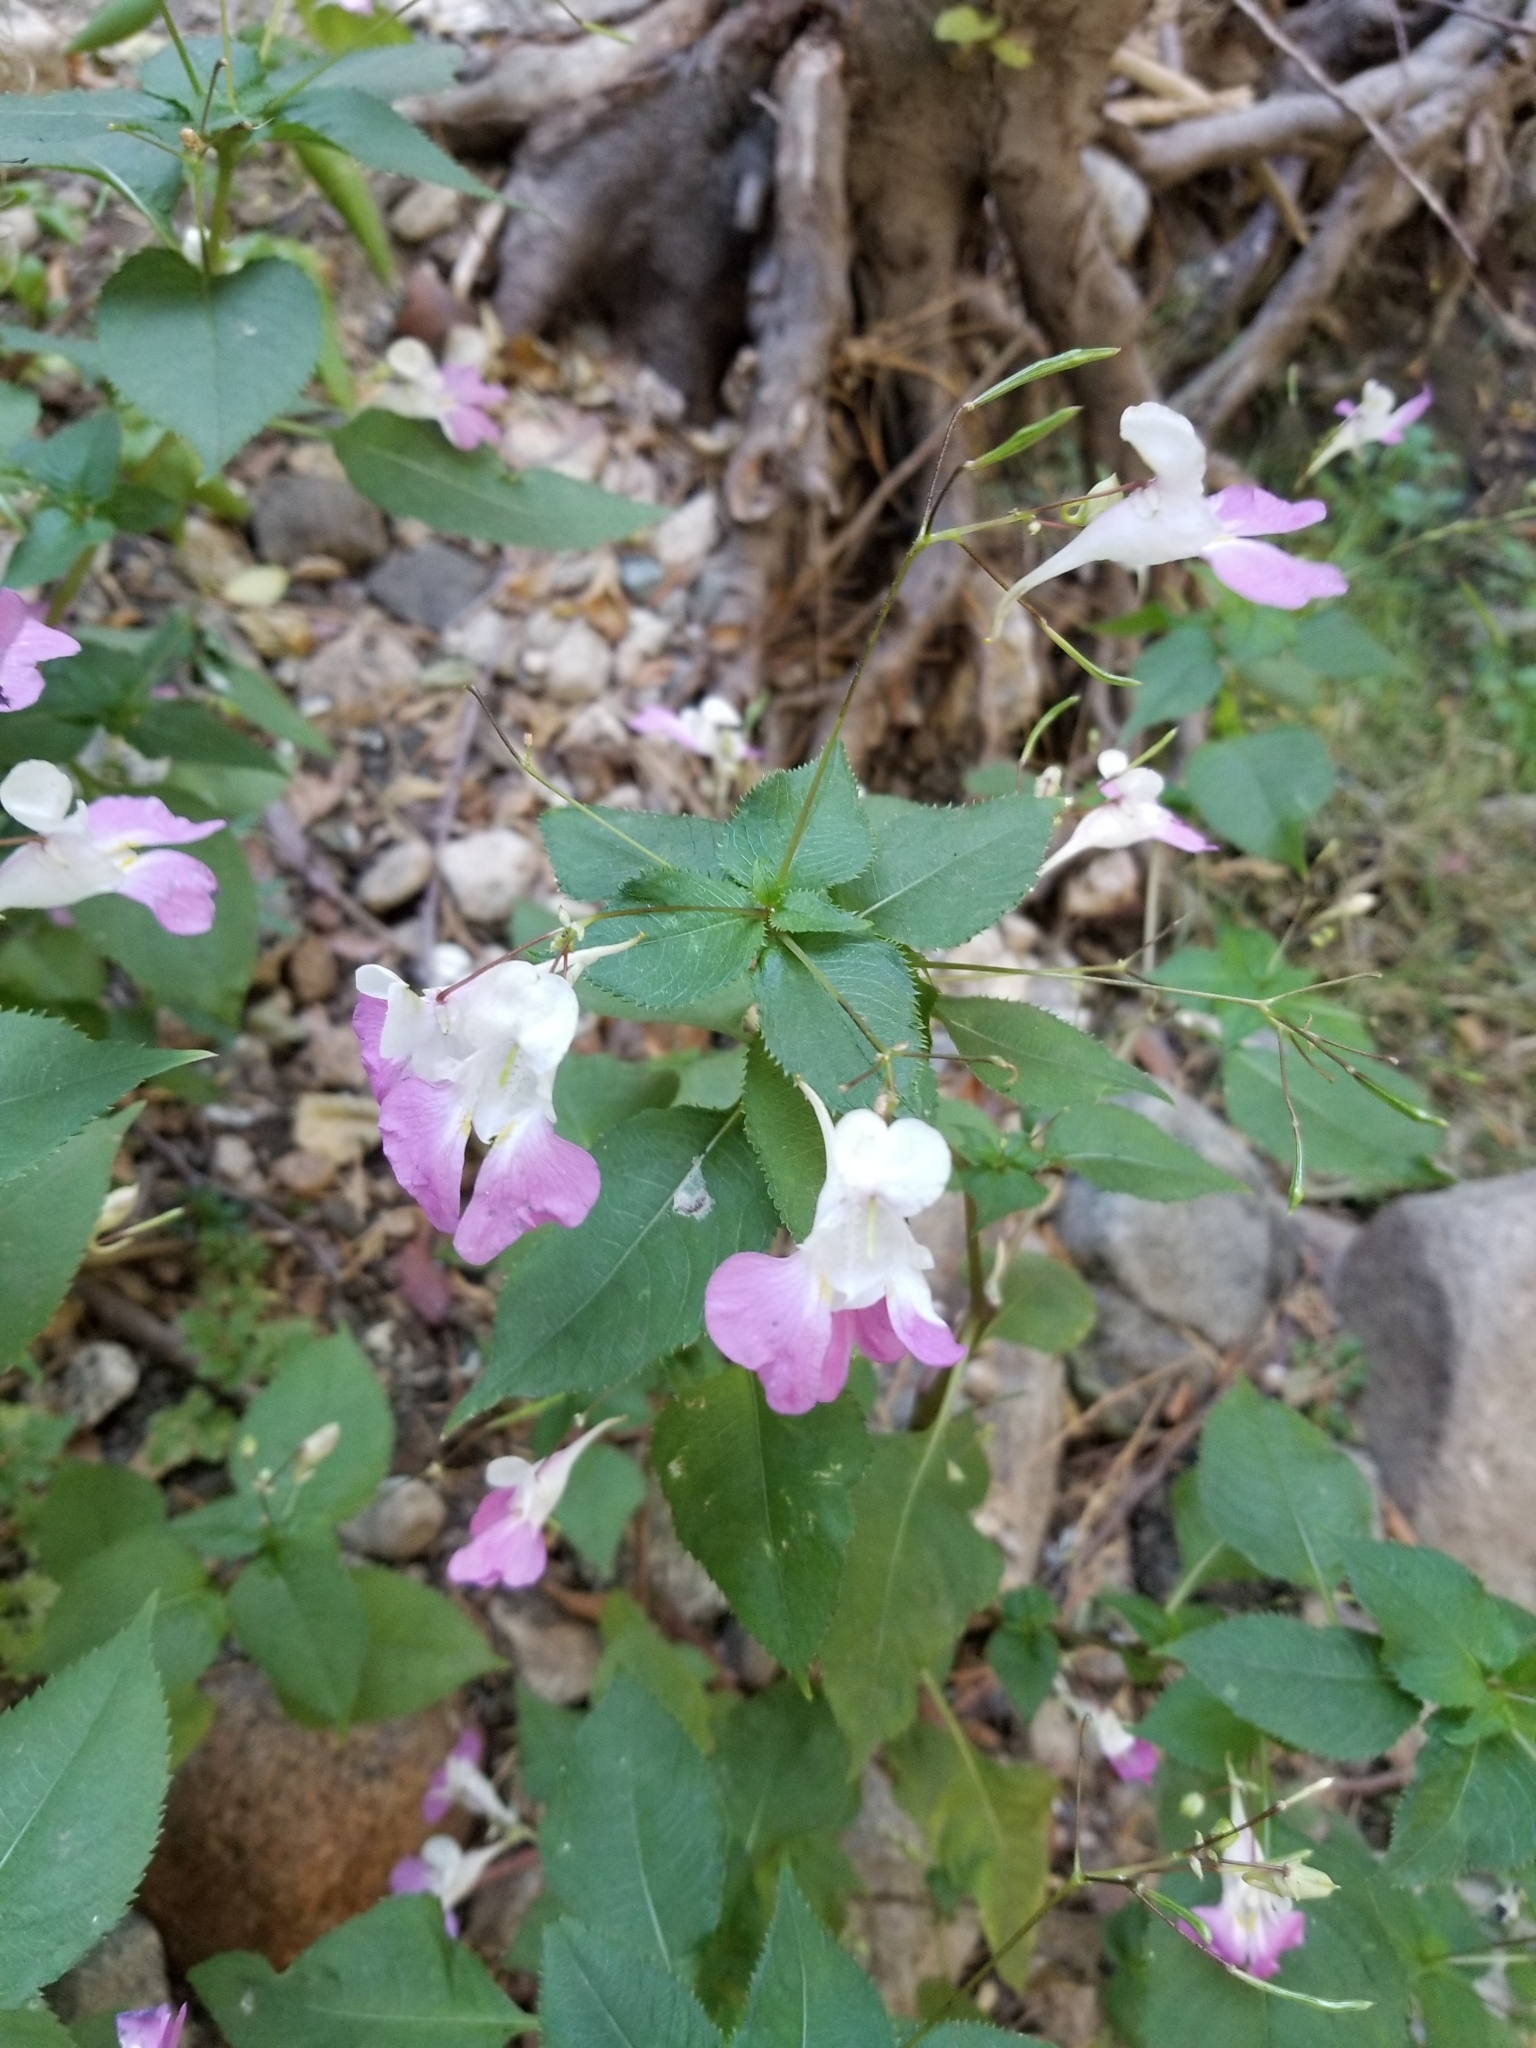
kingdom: Plantae
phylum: Tracheophyta
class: Magnoliopsida
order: Ericales
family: Balsaminaceae
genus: Impatiens
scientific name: Impatiens balfourii
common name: Balfour's touch-me-not
